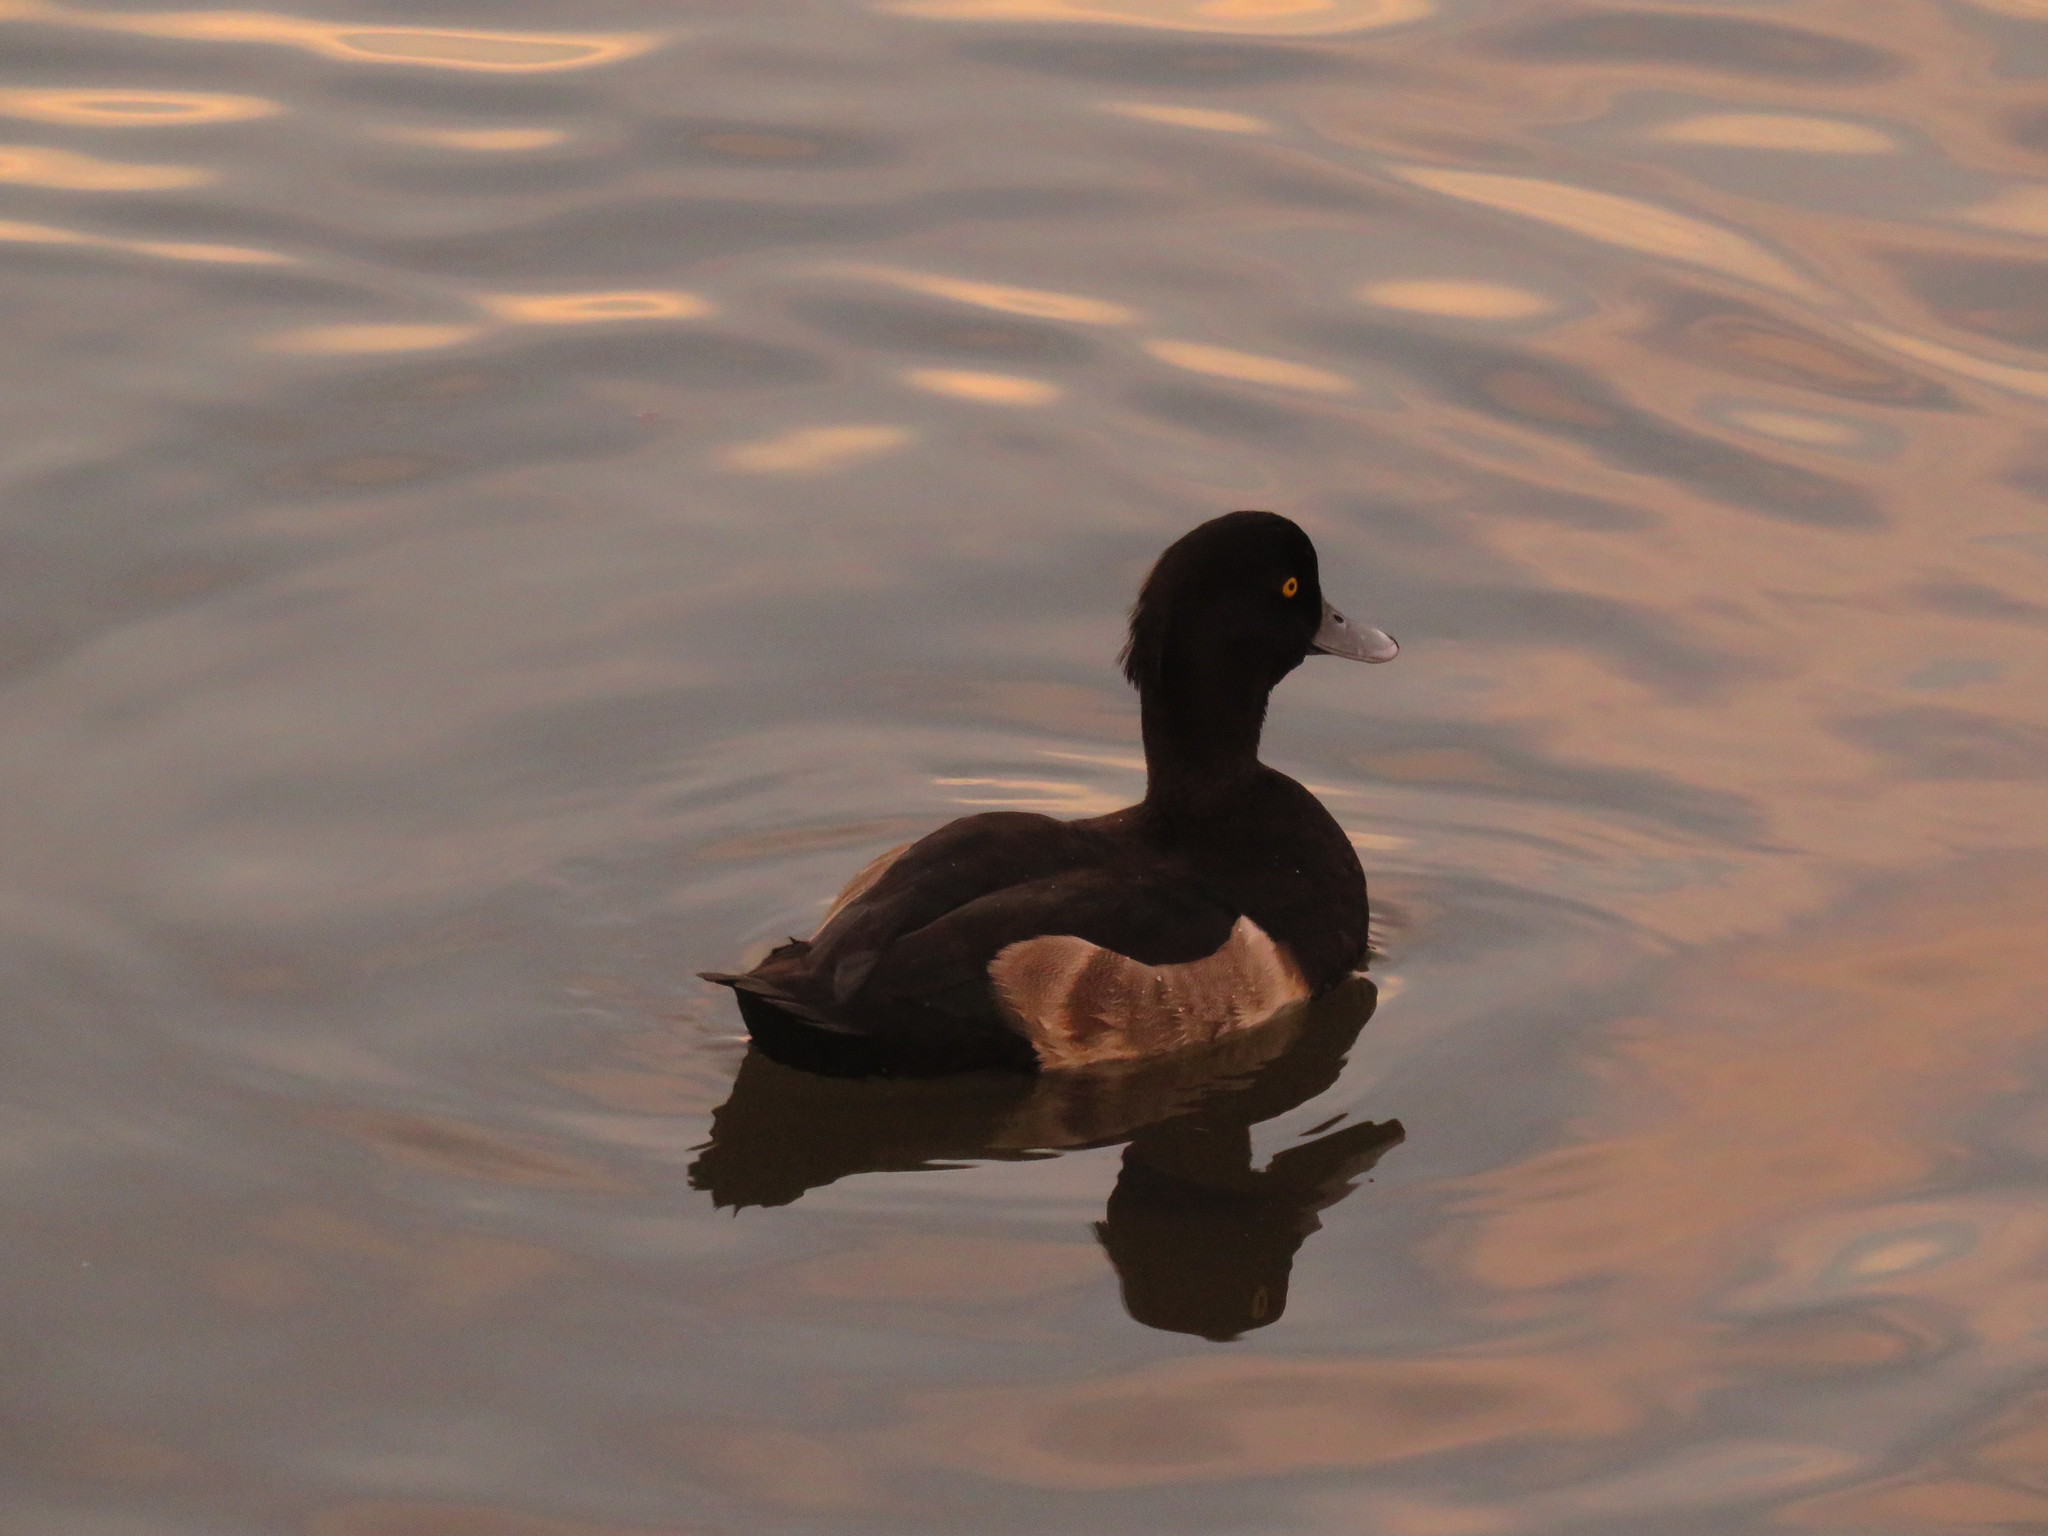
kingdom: Animalia
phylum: Chordata
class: Aves
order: Anseriformes
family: Anatidae
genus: Aythya
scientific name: Aythya fuligula
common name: Tufted duck
